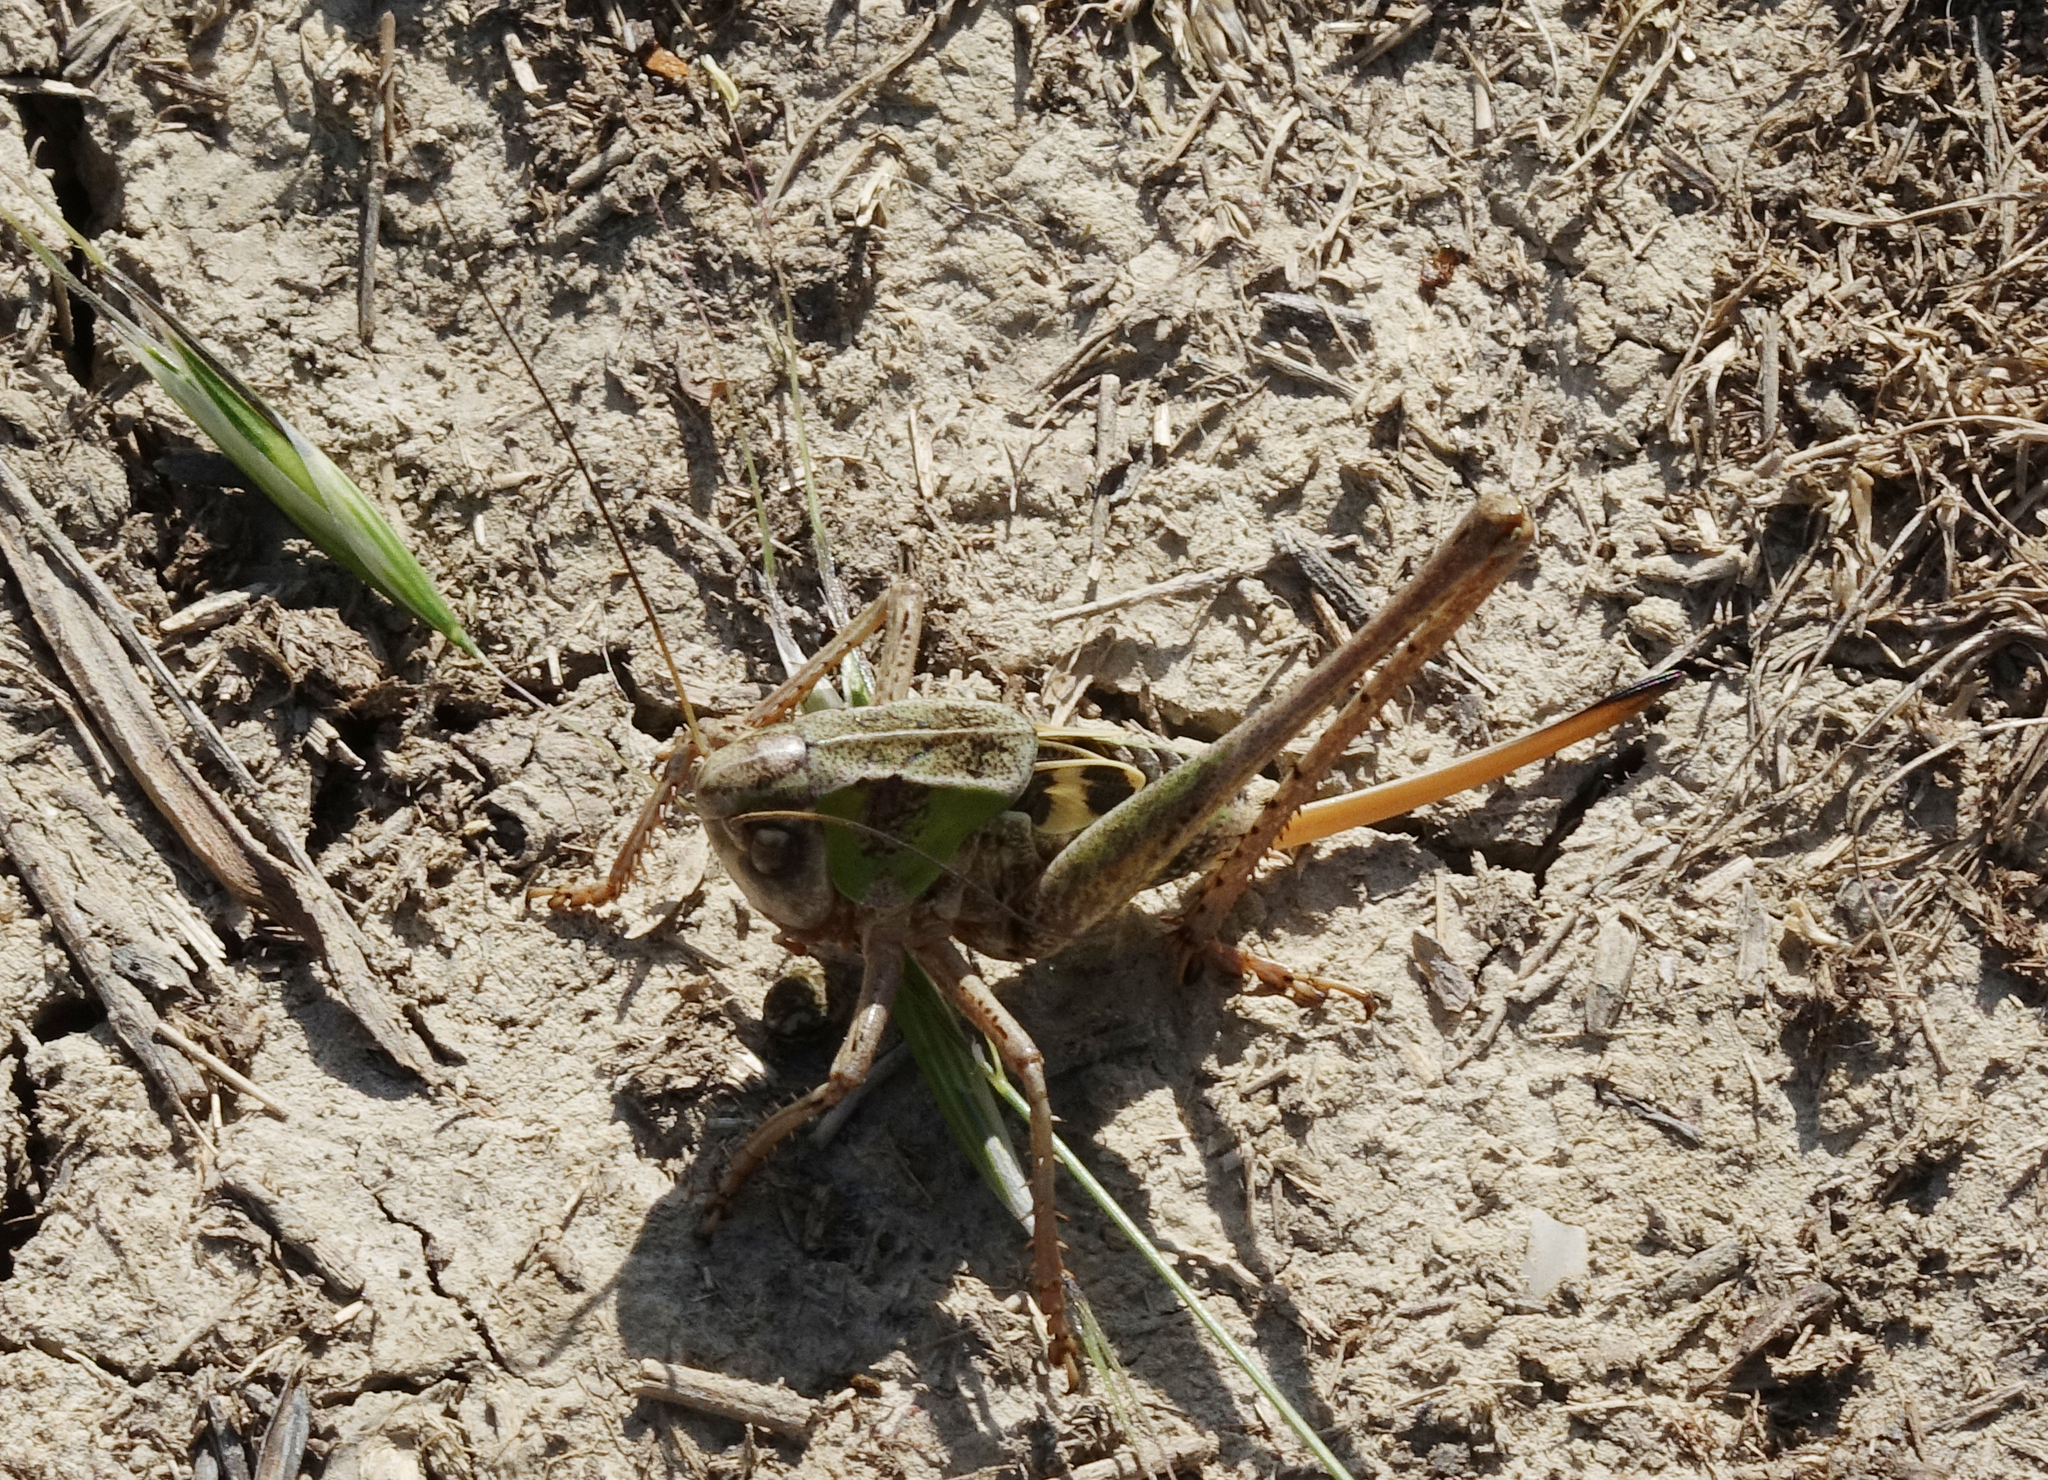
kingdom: Animalia
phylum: Arthropoda
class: Insecta
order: Orthoptera
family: Tettigoniidae
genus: Decticus
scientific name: Decticus verrucivorus
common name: Wart-biter
